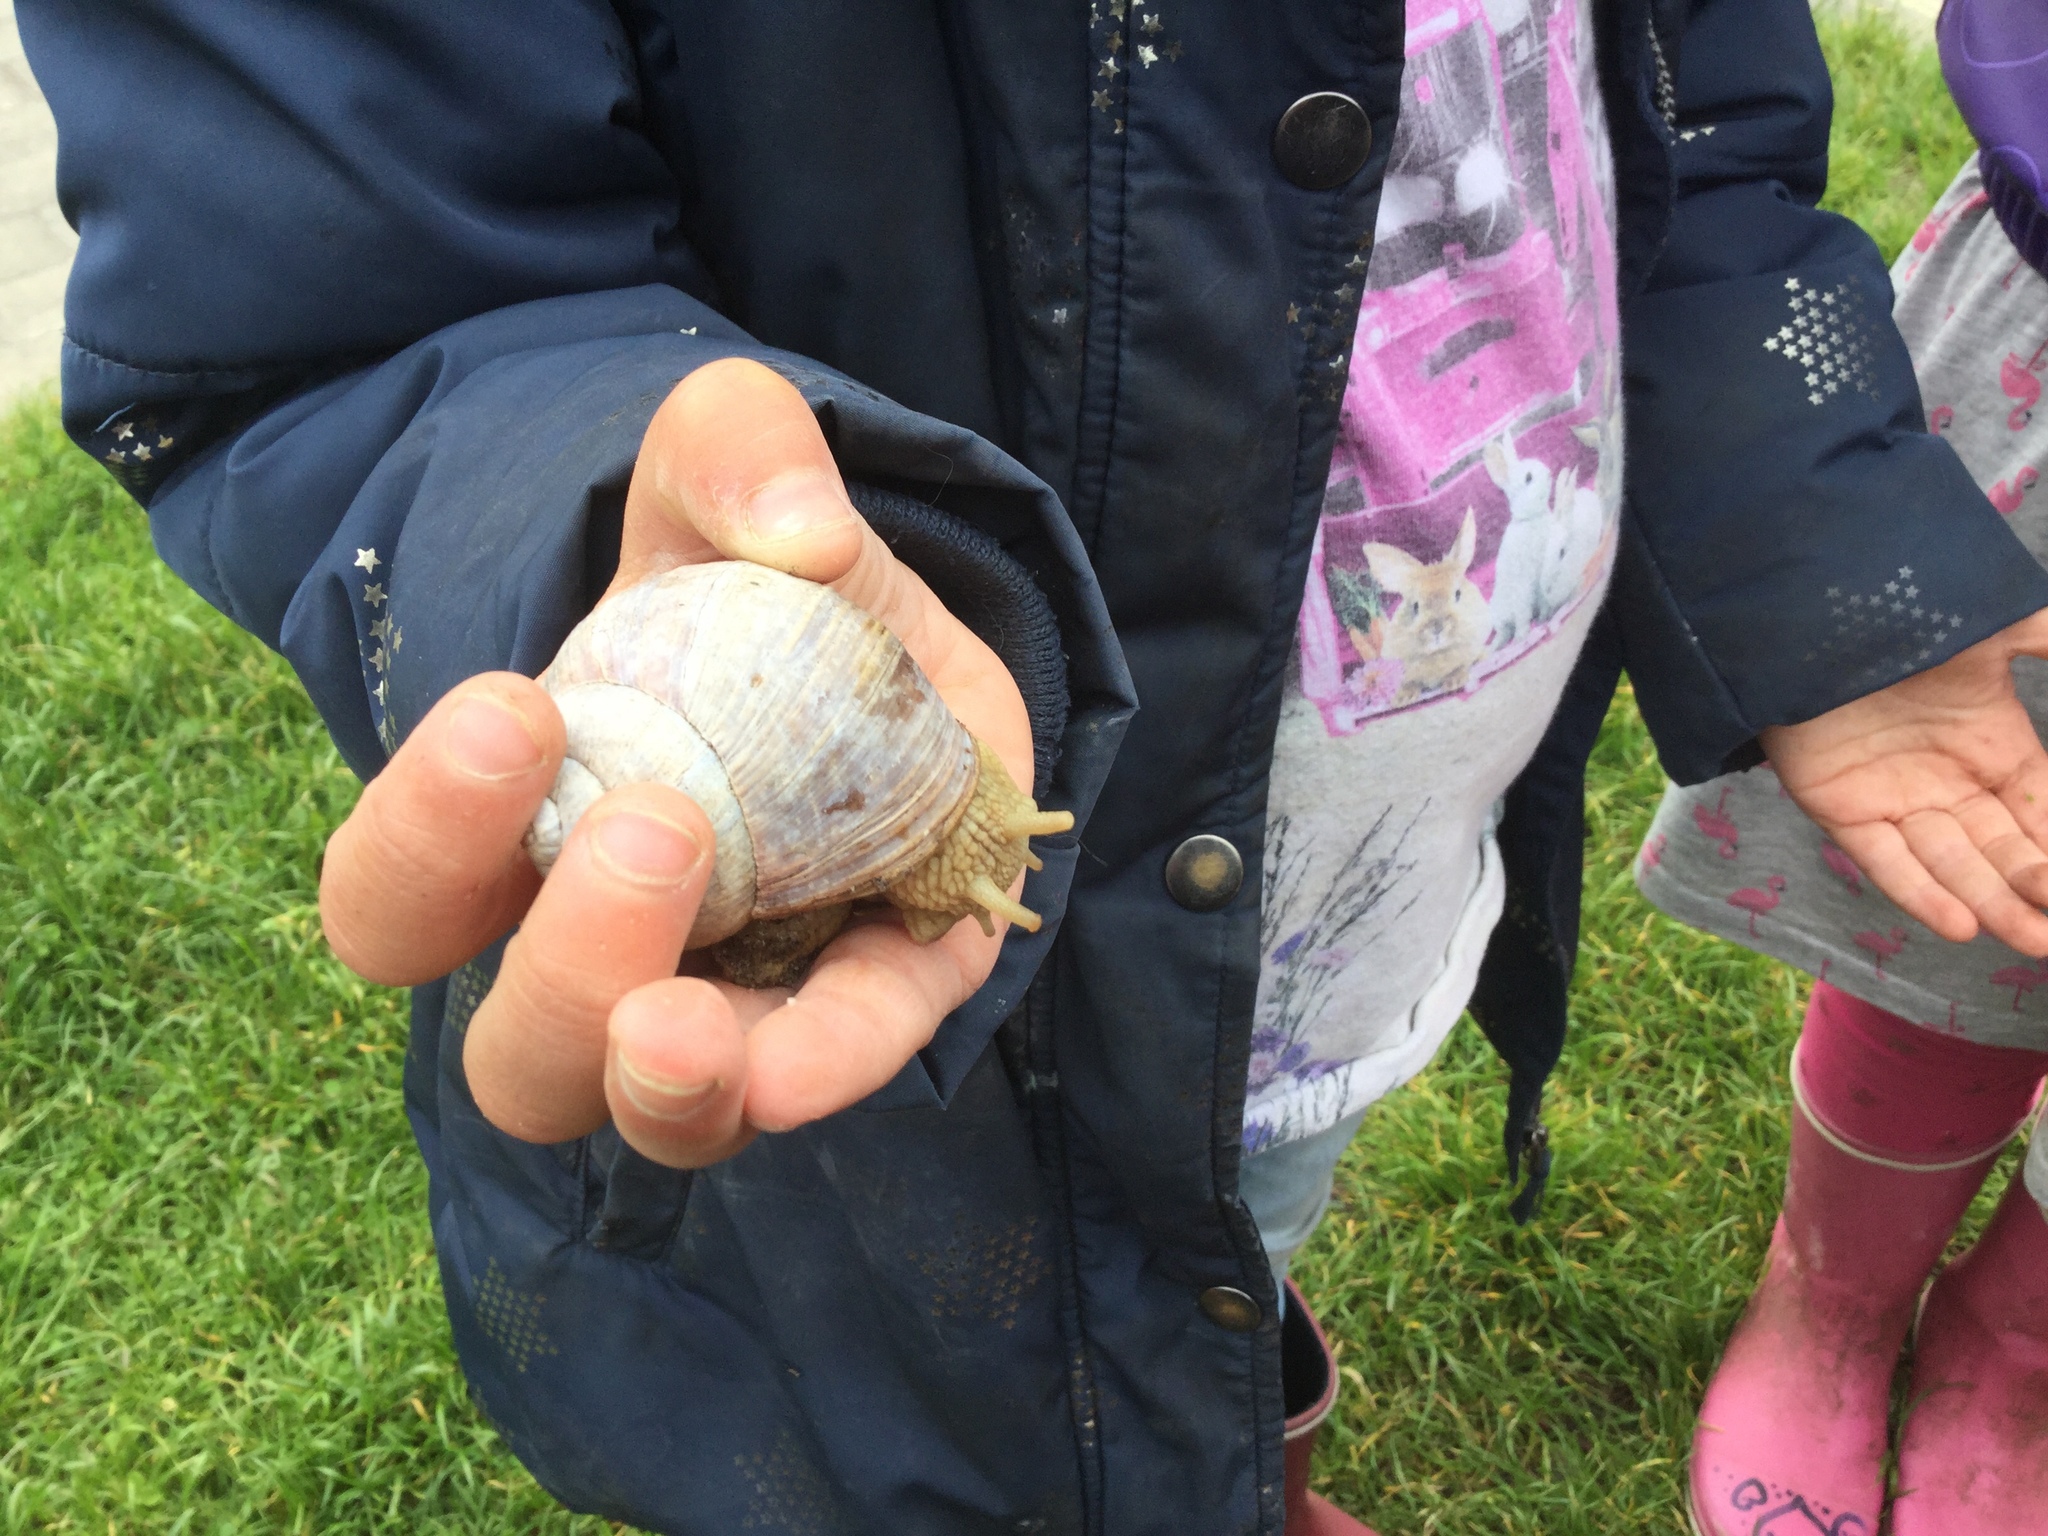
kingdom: Animalia
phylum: Mollusca
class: Gastropoda
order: Stylommatophora
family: Helicidae
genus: Helix
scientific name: Helix pomatia
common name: Roman snail
